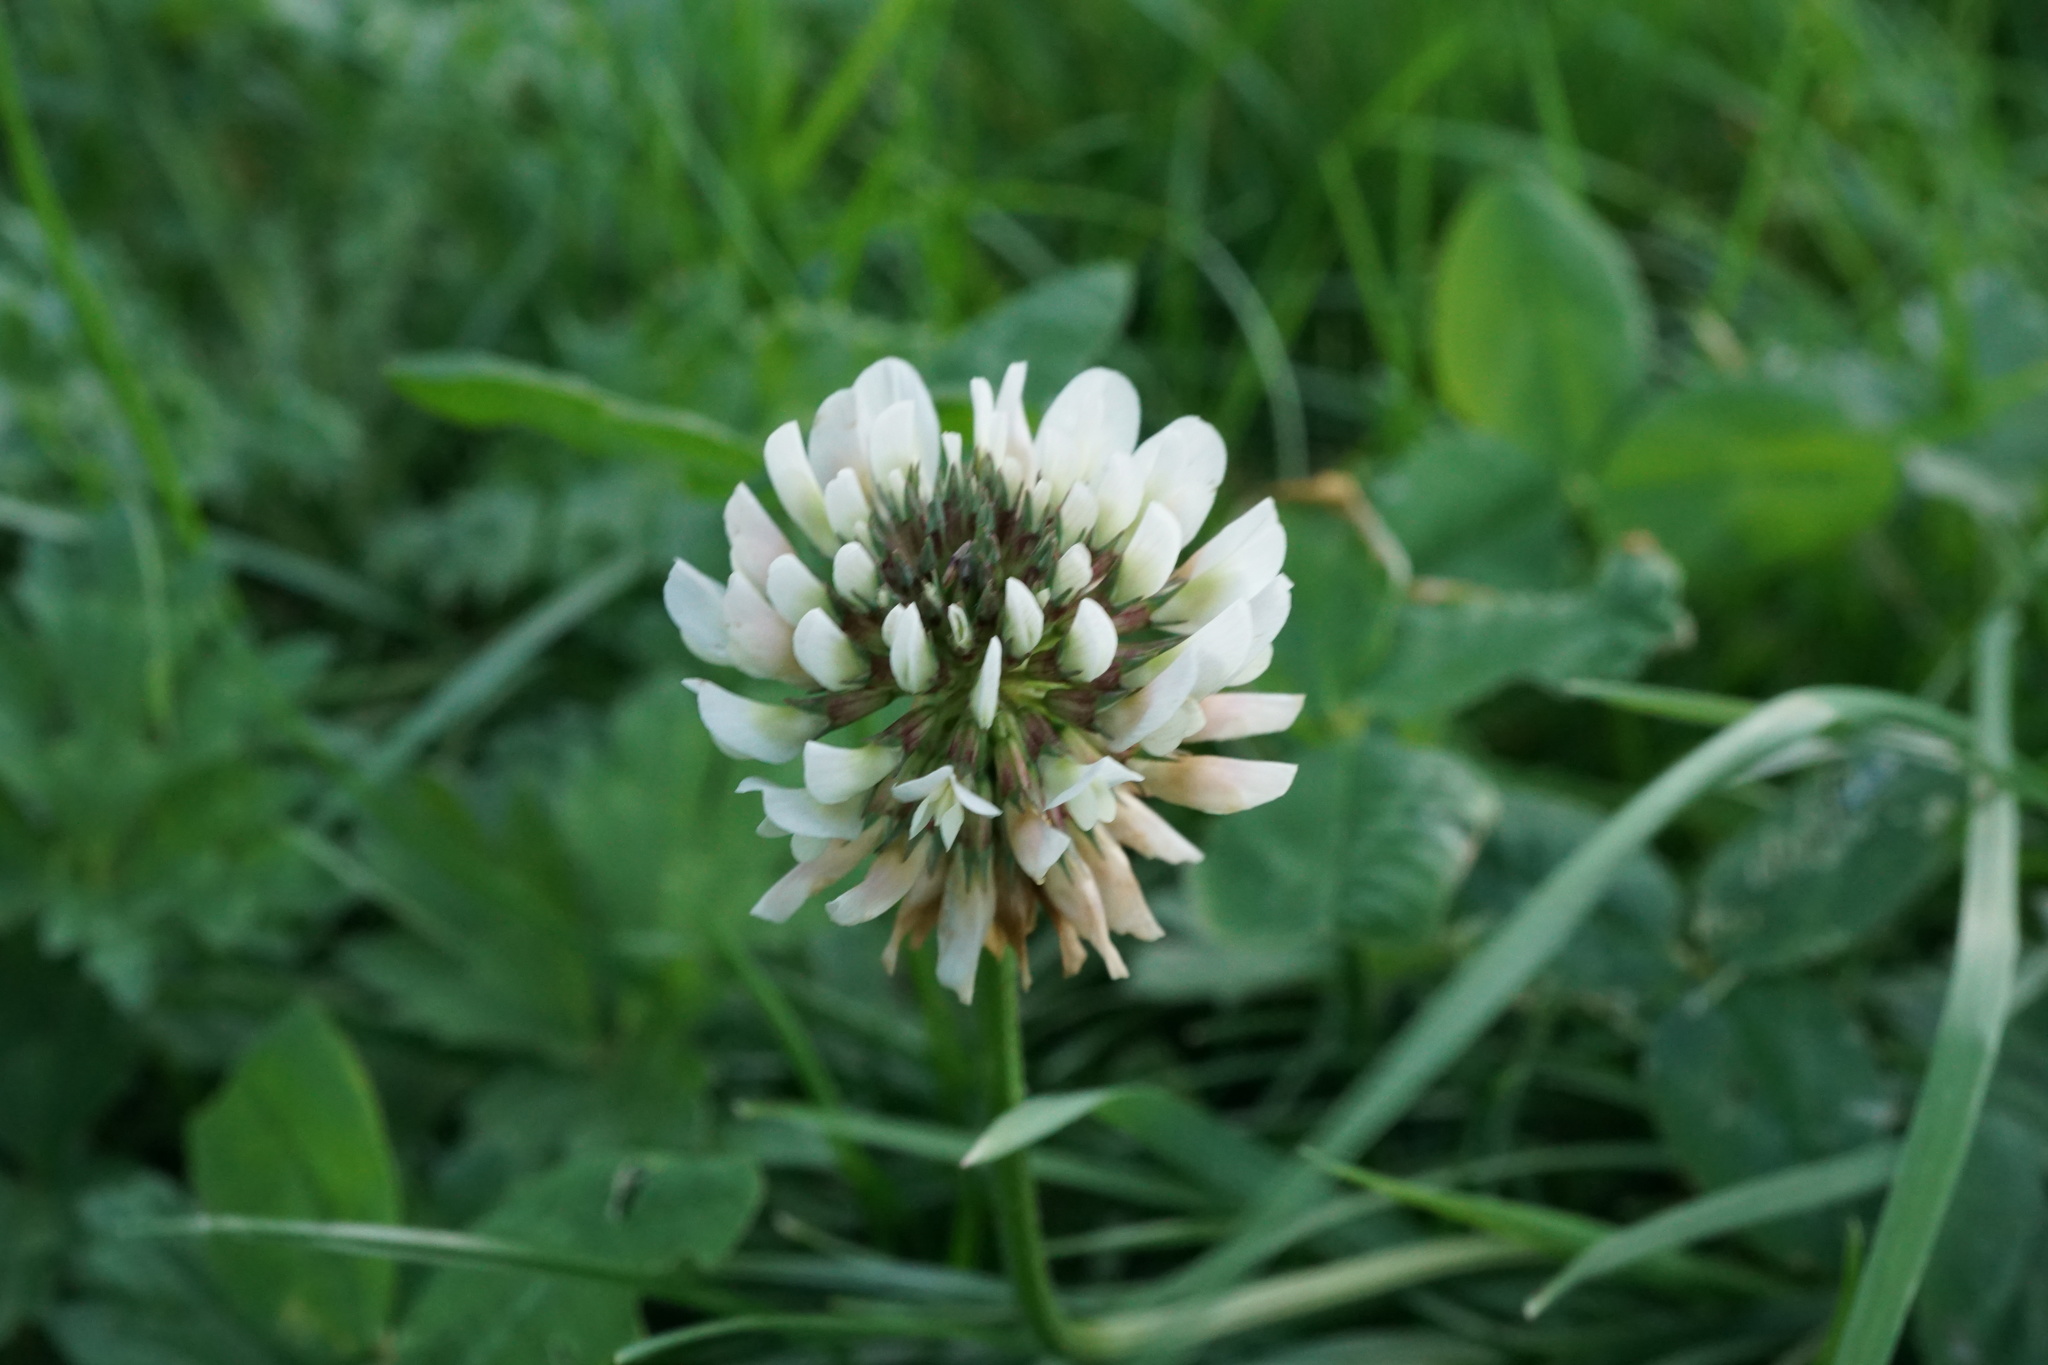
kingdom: Plantae
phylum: Tracheophyta
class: Magnoliopsida
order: Fabales
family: Fabaceae
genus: Trifolium
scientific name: Trifolium repens
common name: White clover
